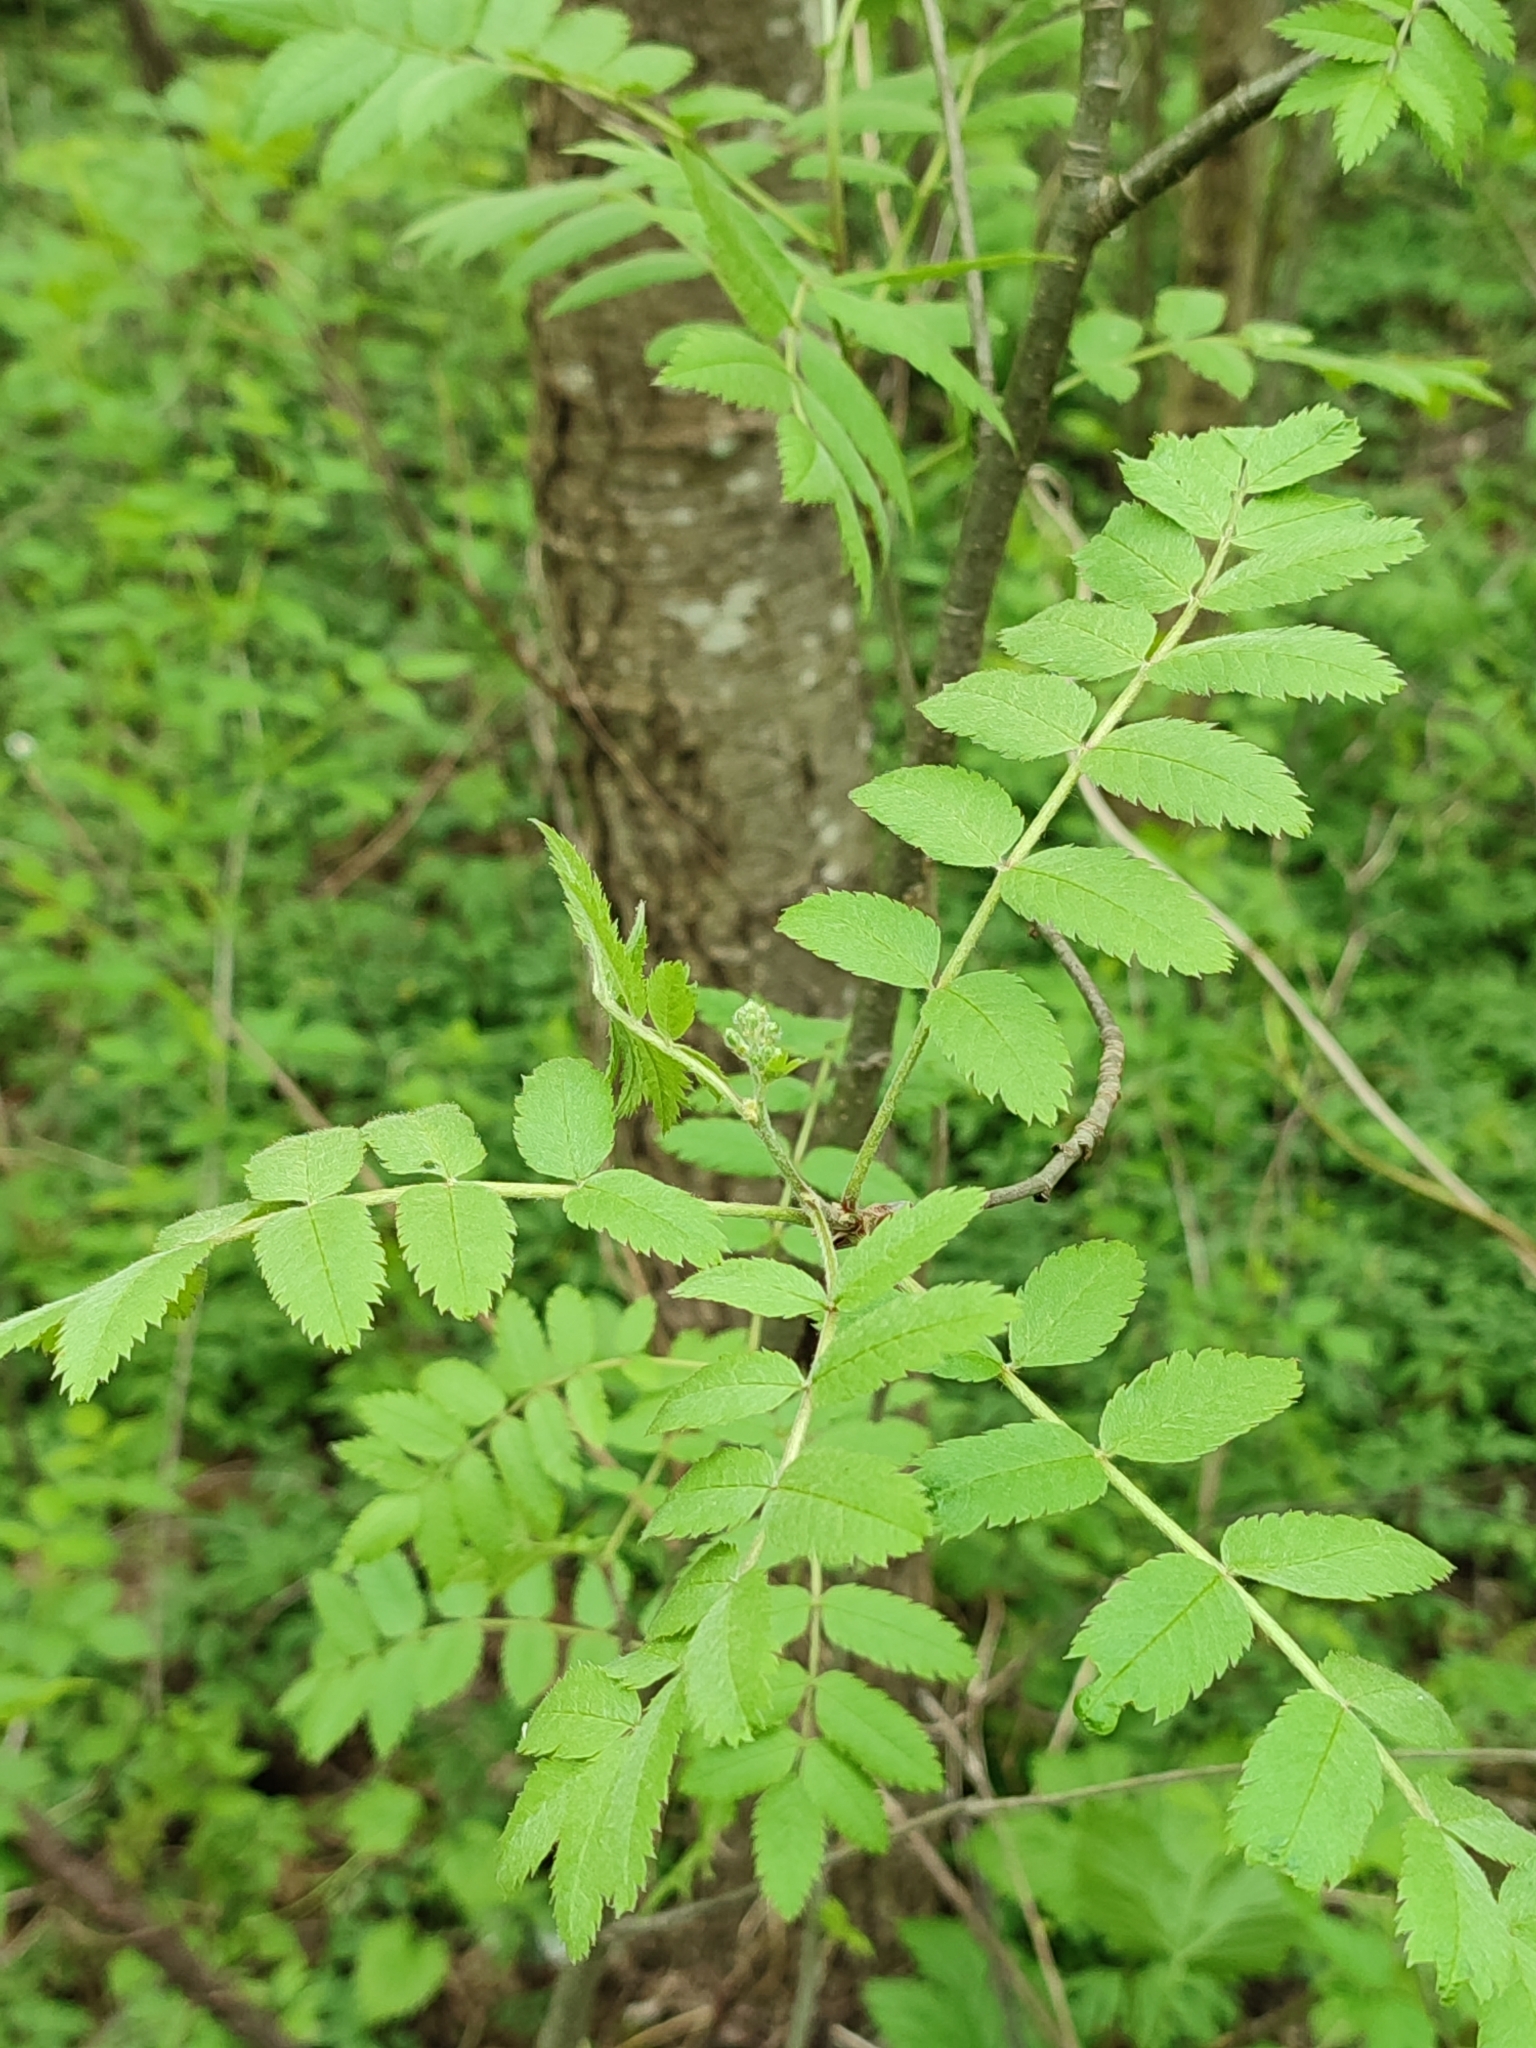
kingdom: Plantae
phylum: Tracheophyta
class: Magnoliopsida
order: Rosales
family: Rosaceae
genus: Sorbus
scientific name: Sorbus aucuparia
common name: Rowan
